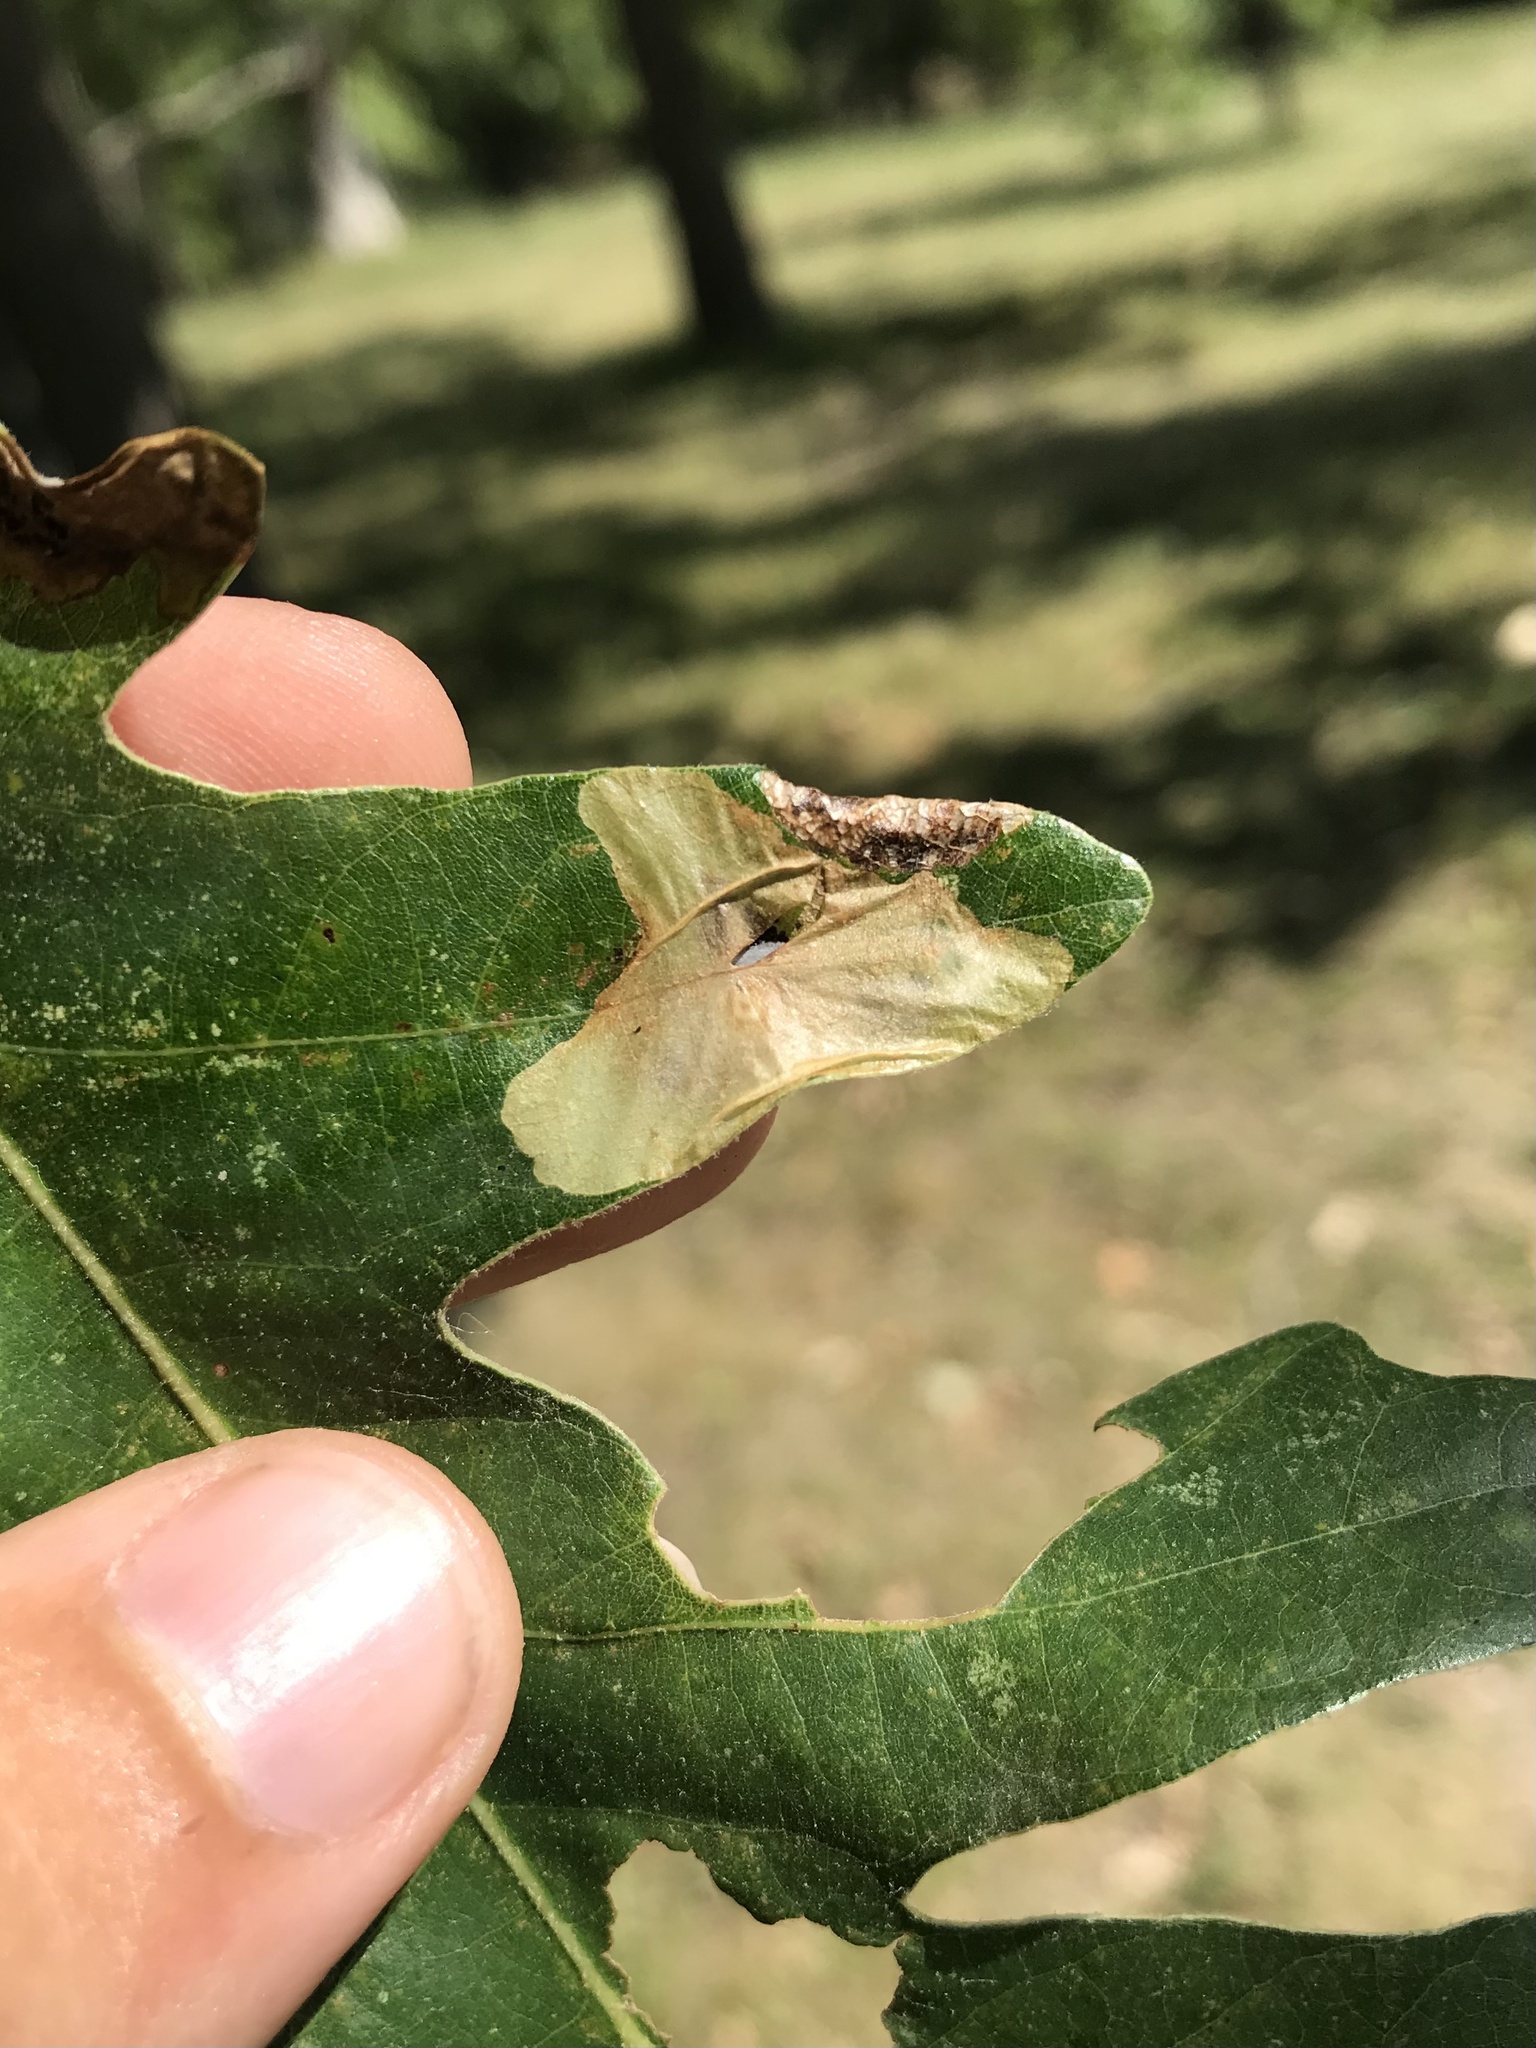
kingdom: Animalia
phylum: Arthropoda
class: Insecta
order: Lepidoptera
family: Gracillariidae
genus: Cameraria
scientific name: Cameraria macrocarpella
